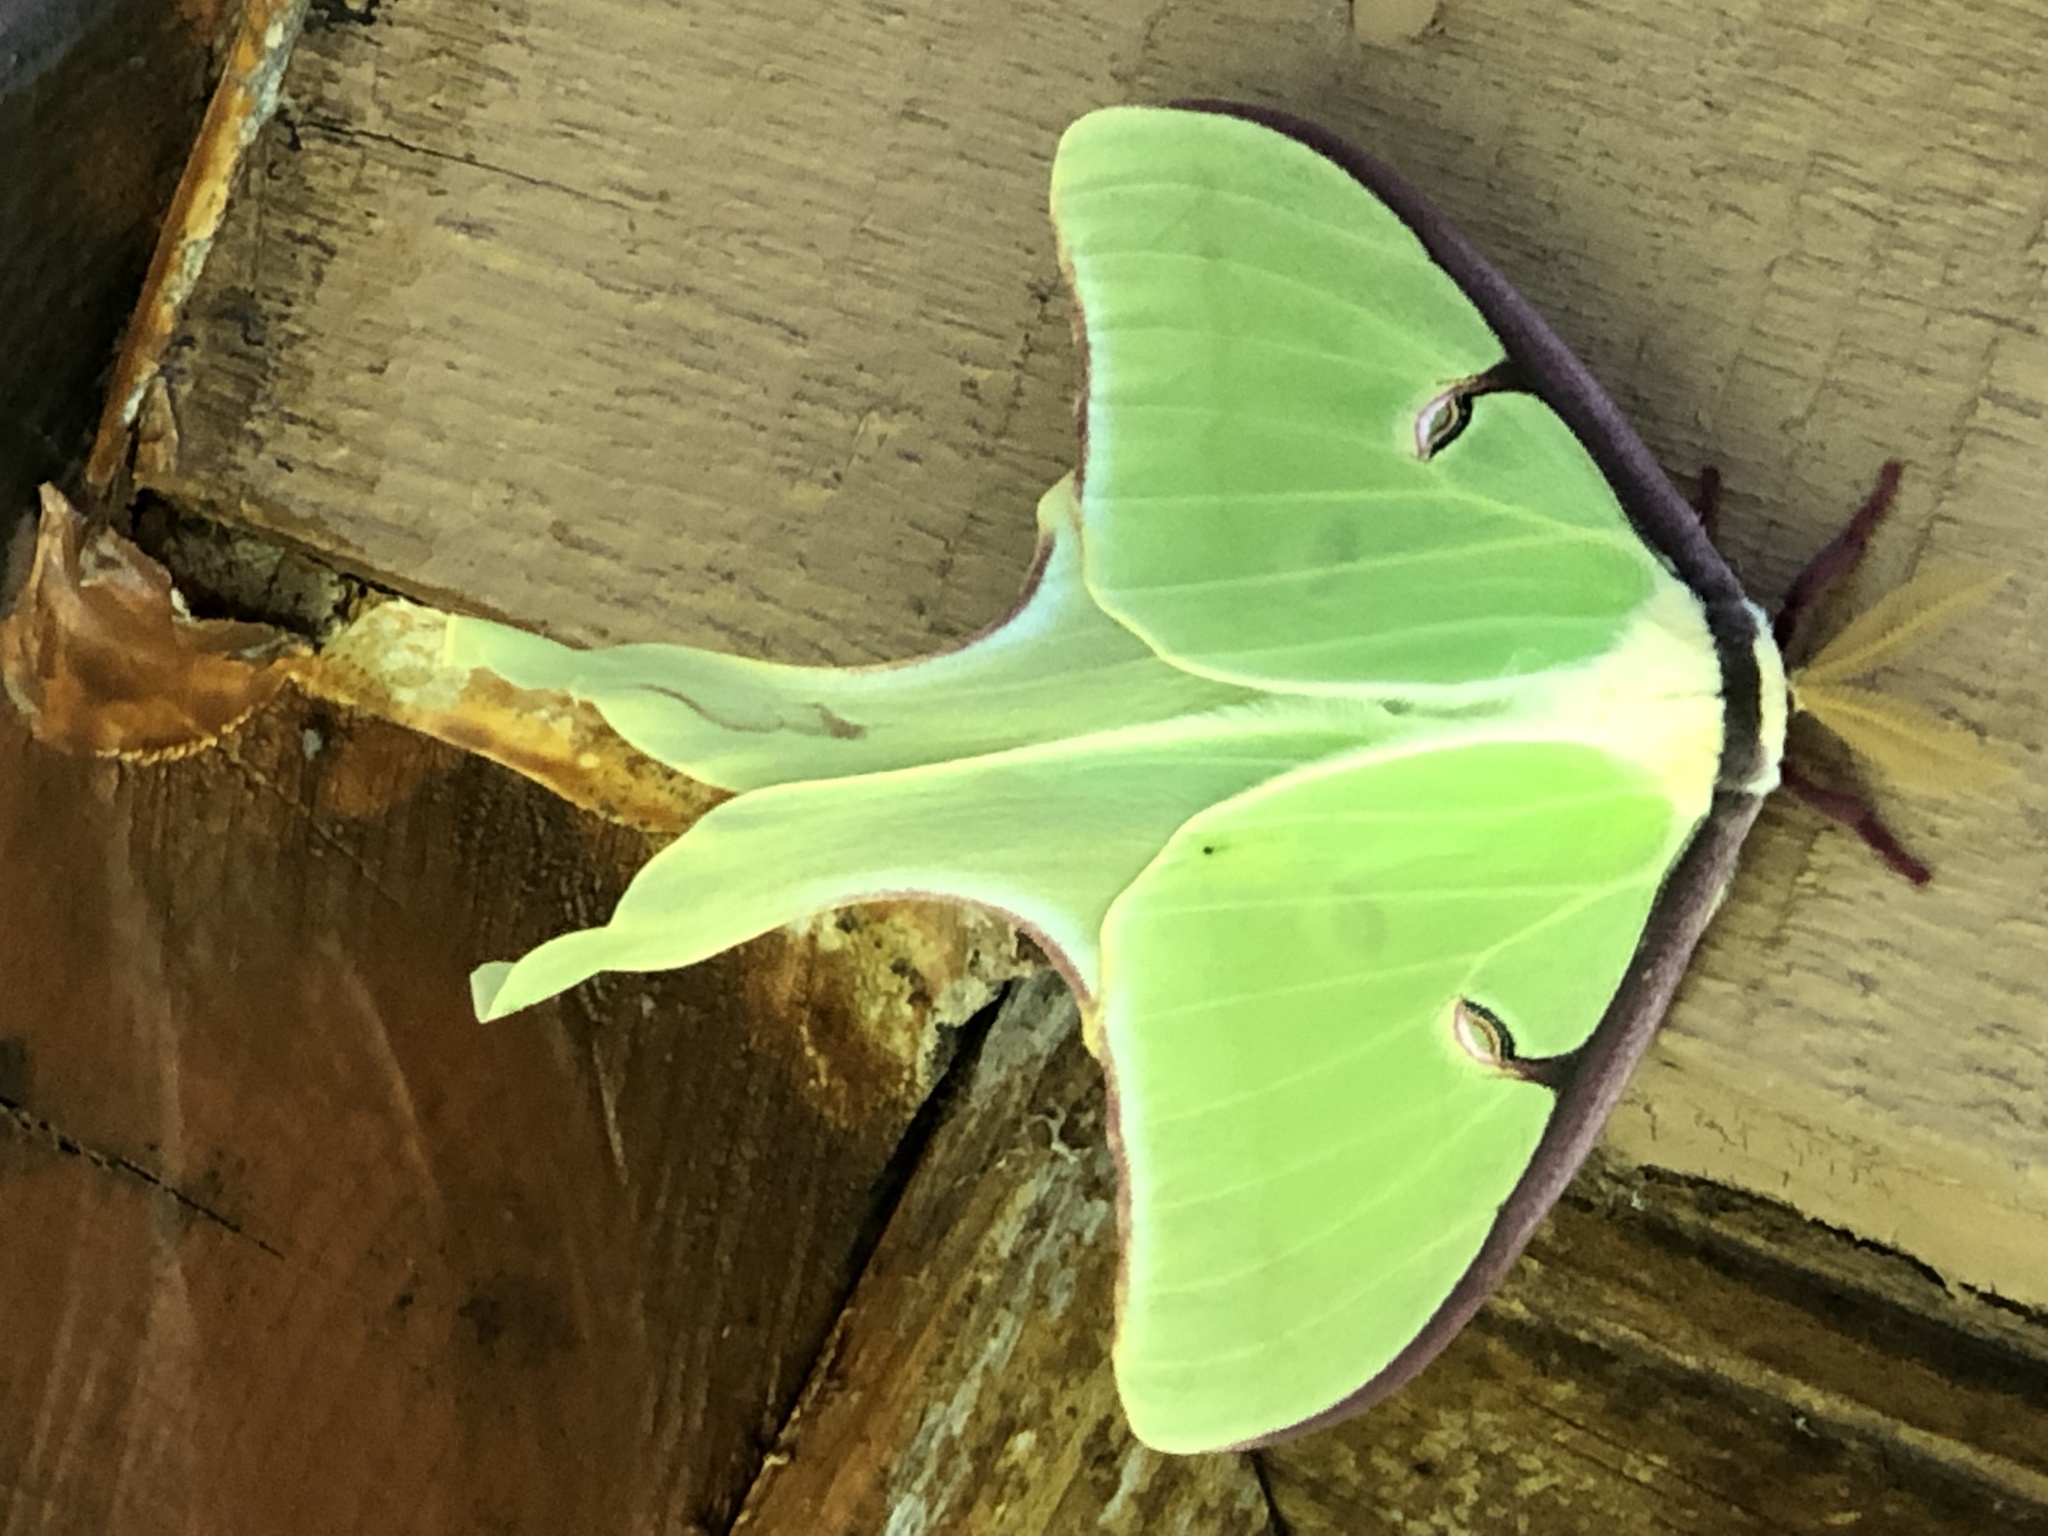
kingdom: Animalia
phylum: Arthropoda
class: Insecta
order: Lepidoptera
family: Saturniidae
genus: Actias
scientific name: Actias luna
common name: Luna moth
